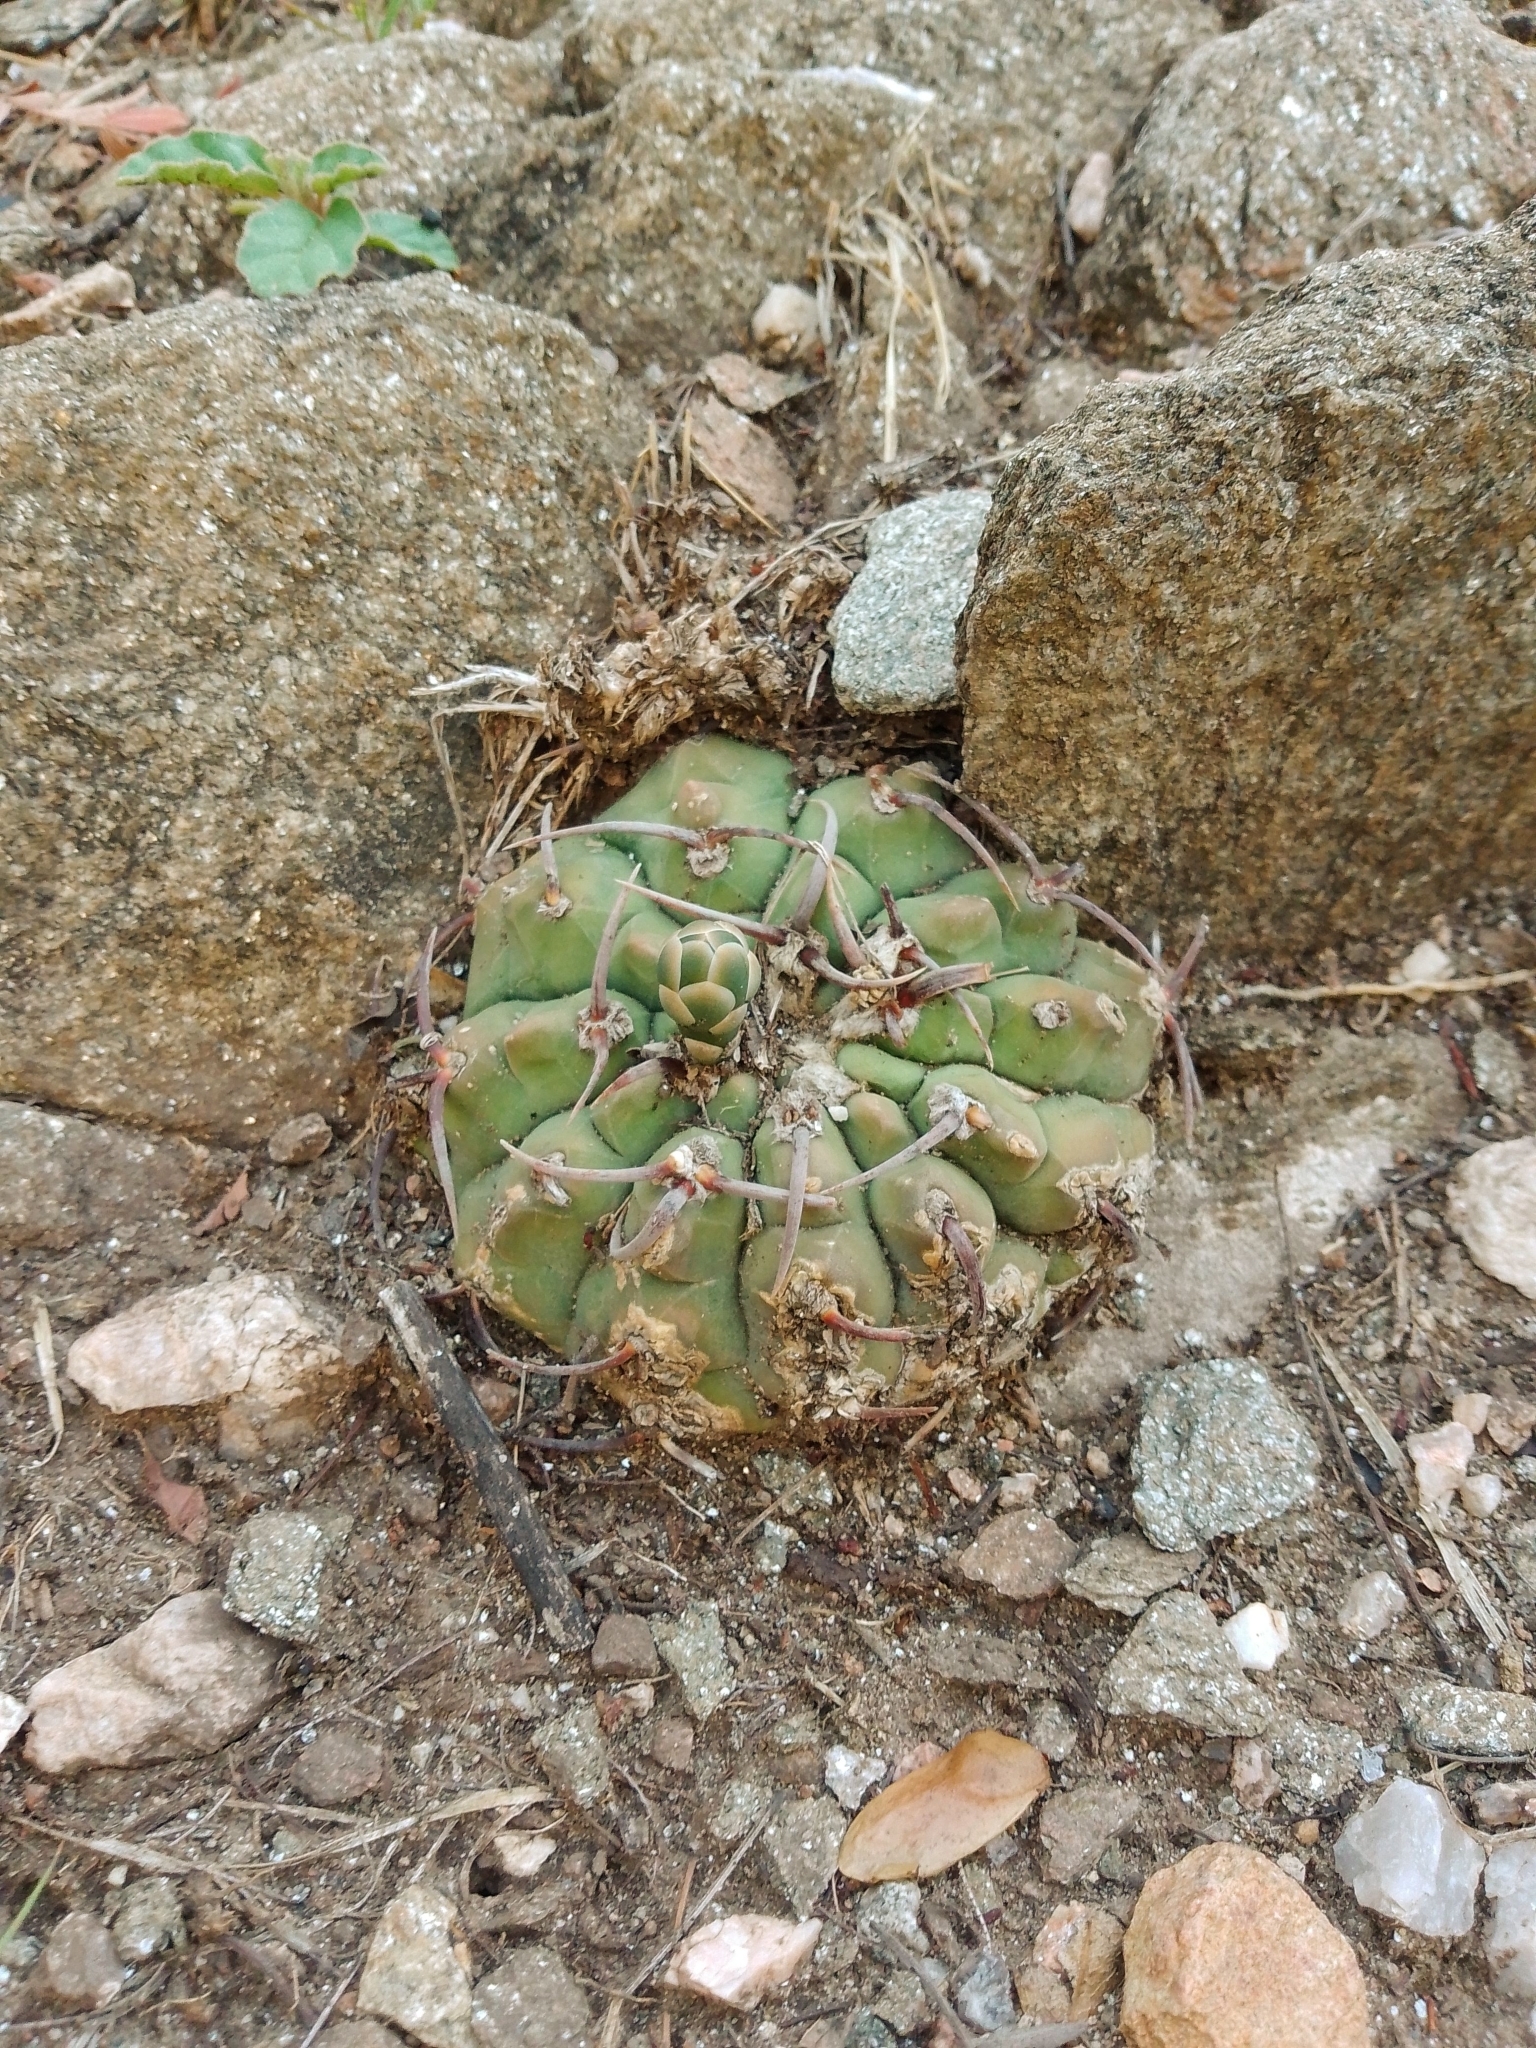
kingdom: Plantae
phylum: Tracheophyta
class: Magnoliopsida
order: Caryophyllales
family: Cactaceae
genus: Gymnocalycium
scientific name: Gymnocalycium ochoterenae
